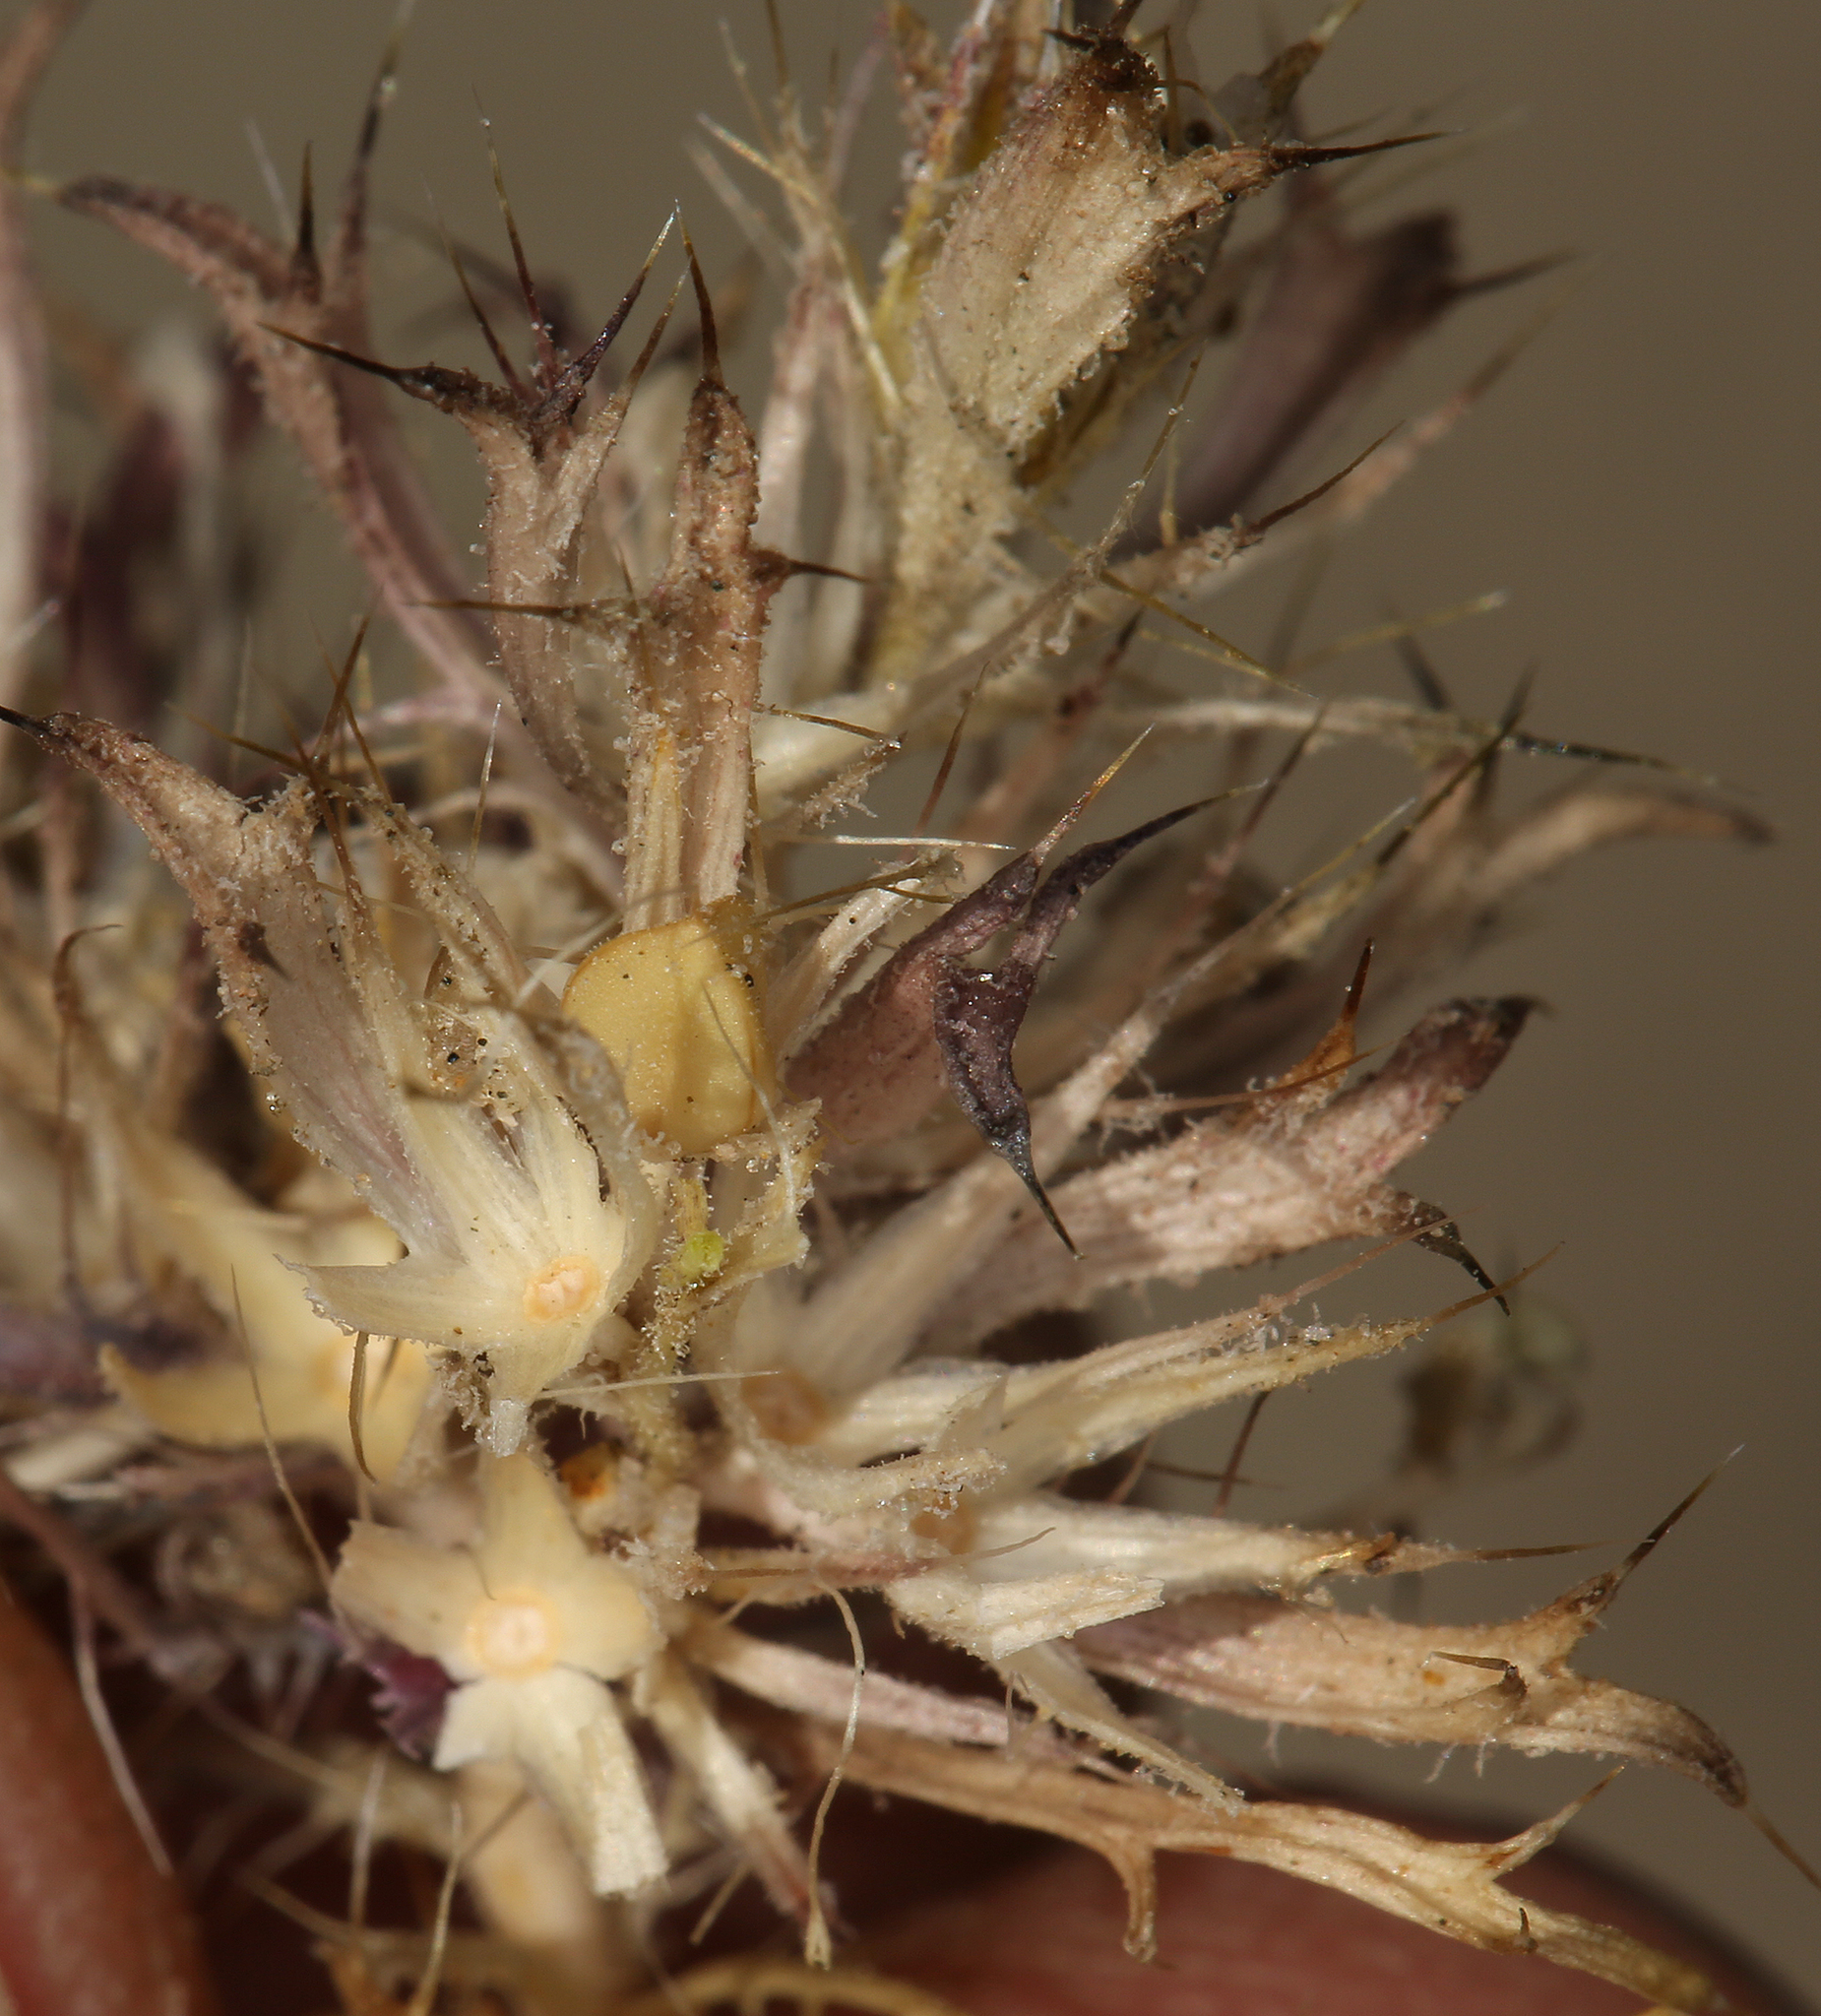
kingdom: Plantae
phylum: Tracheophyta
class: Magnoliopsida
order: Ericales
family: Polemoniaceae
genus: Langloisia
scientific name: Langloisia setosissima
